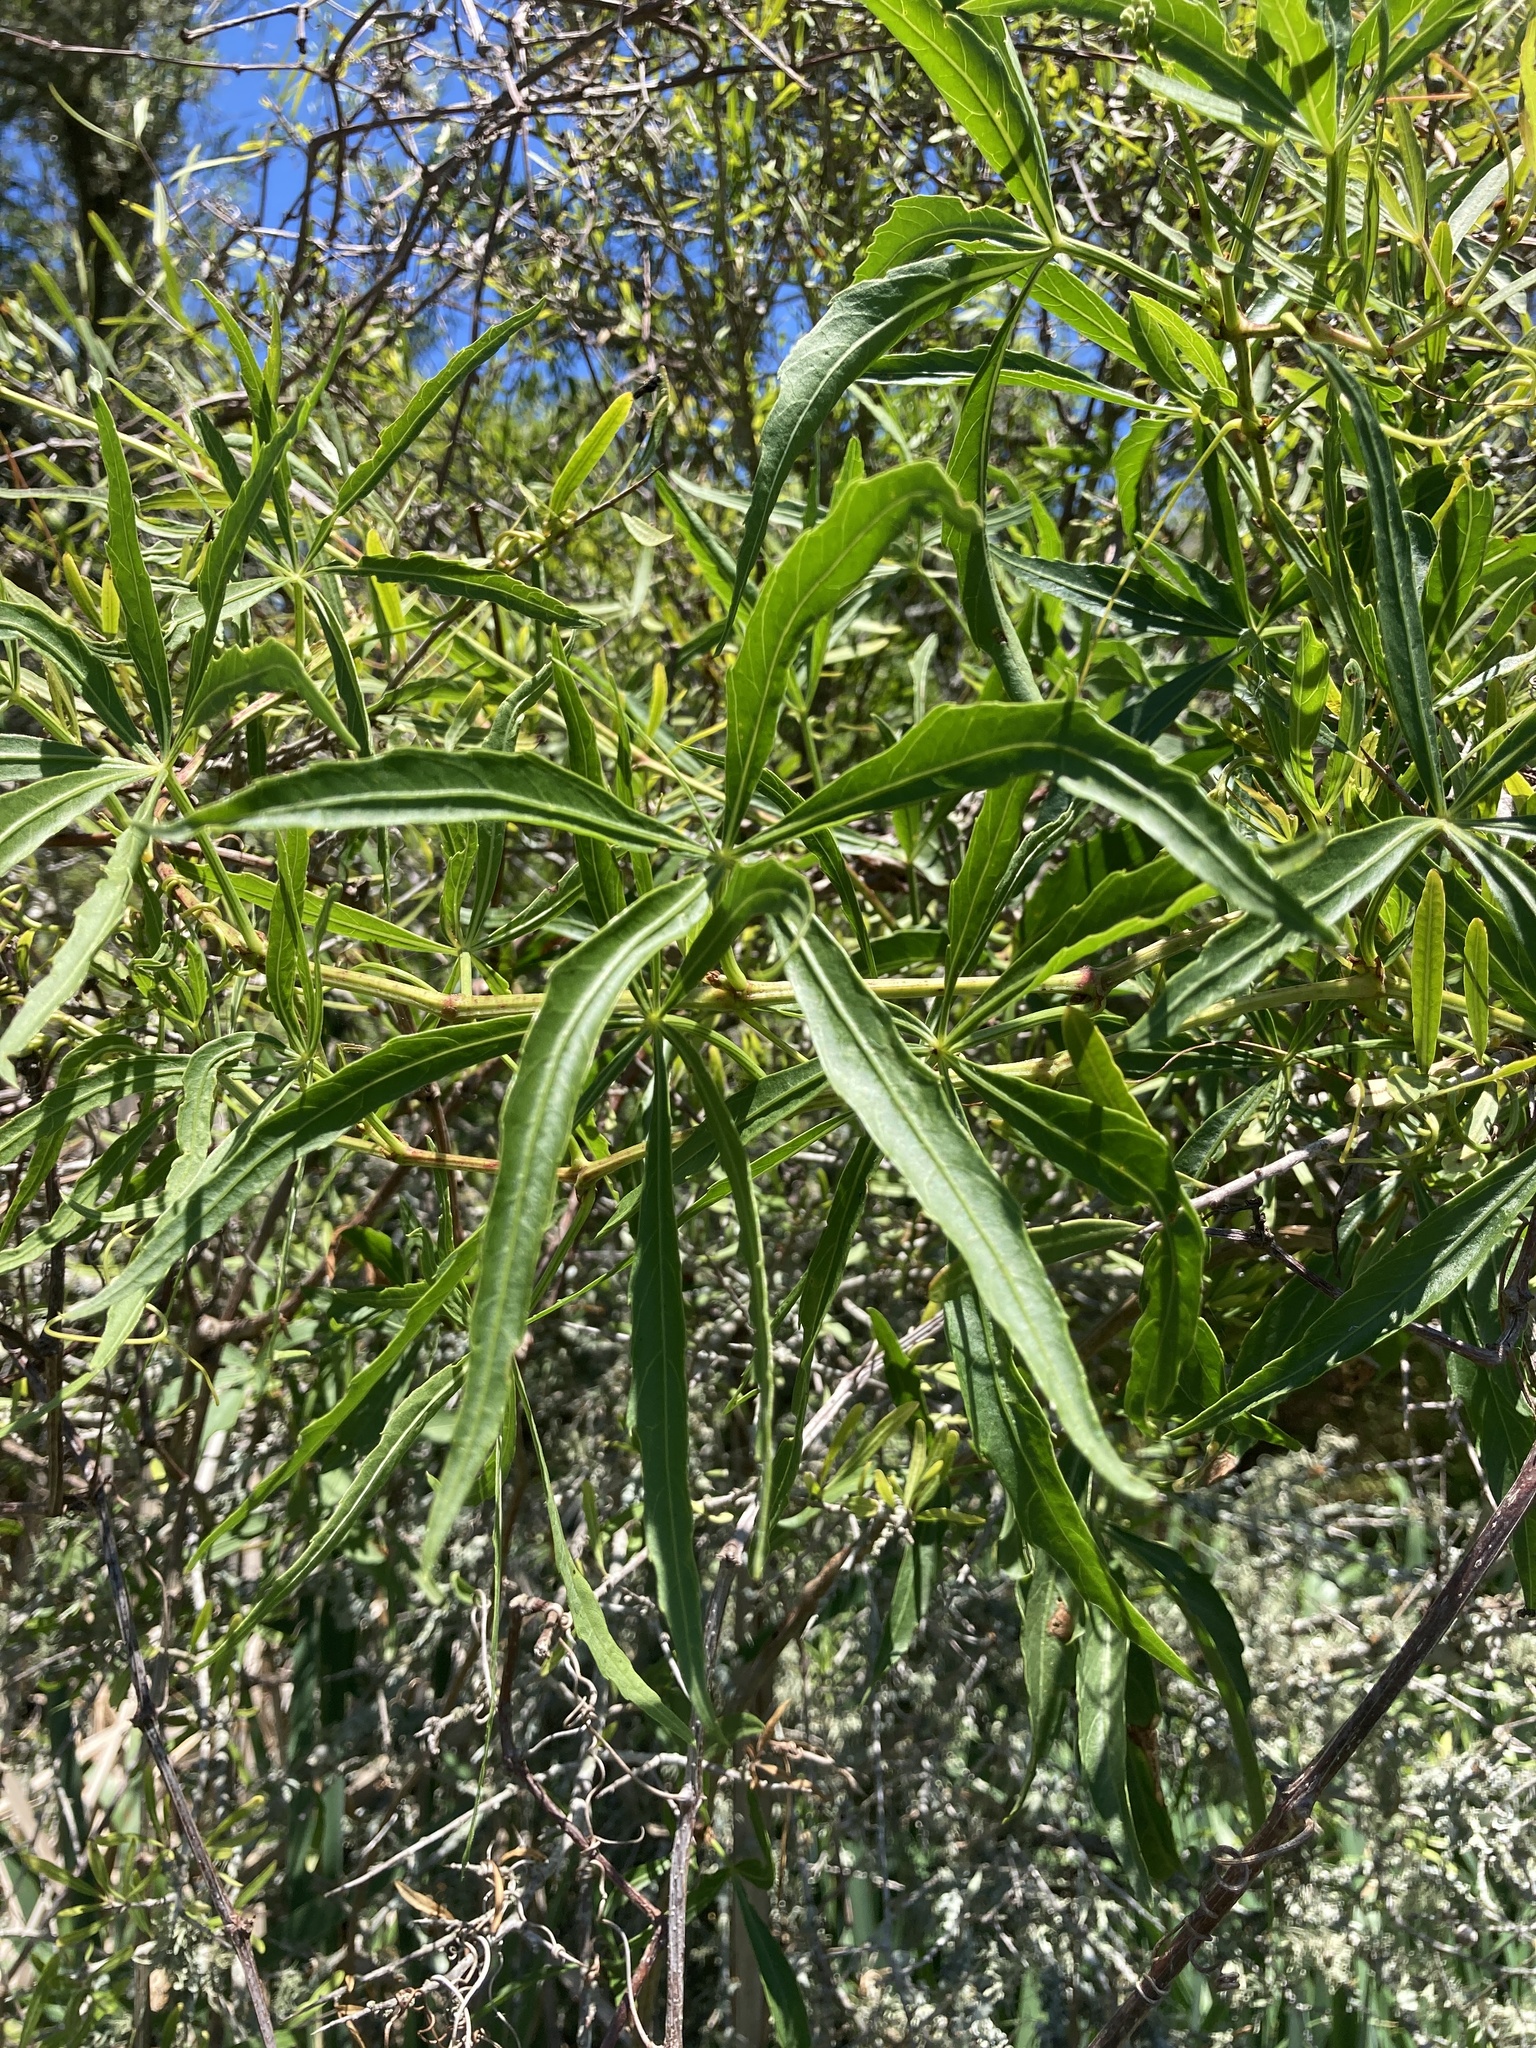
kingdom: Plantae
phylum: Tracheophyta
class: Magnoliopsida
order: Vitales
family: Vitaceae
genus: Cissus
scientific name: Cissus palmata
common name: Grape
